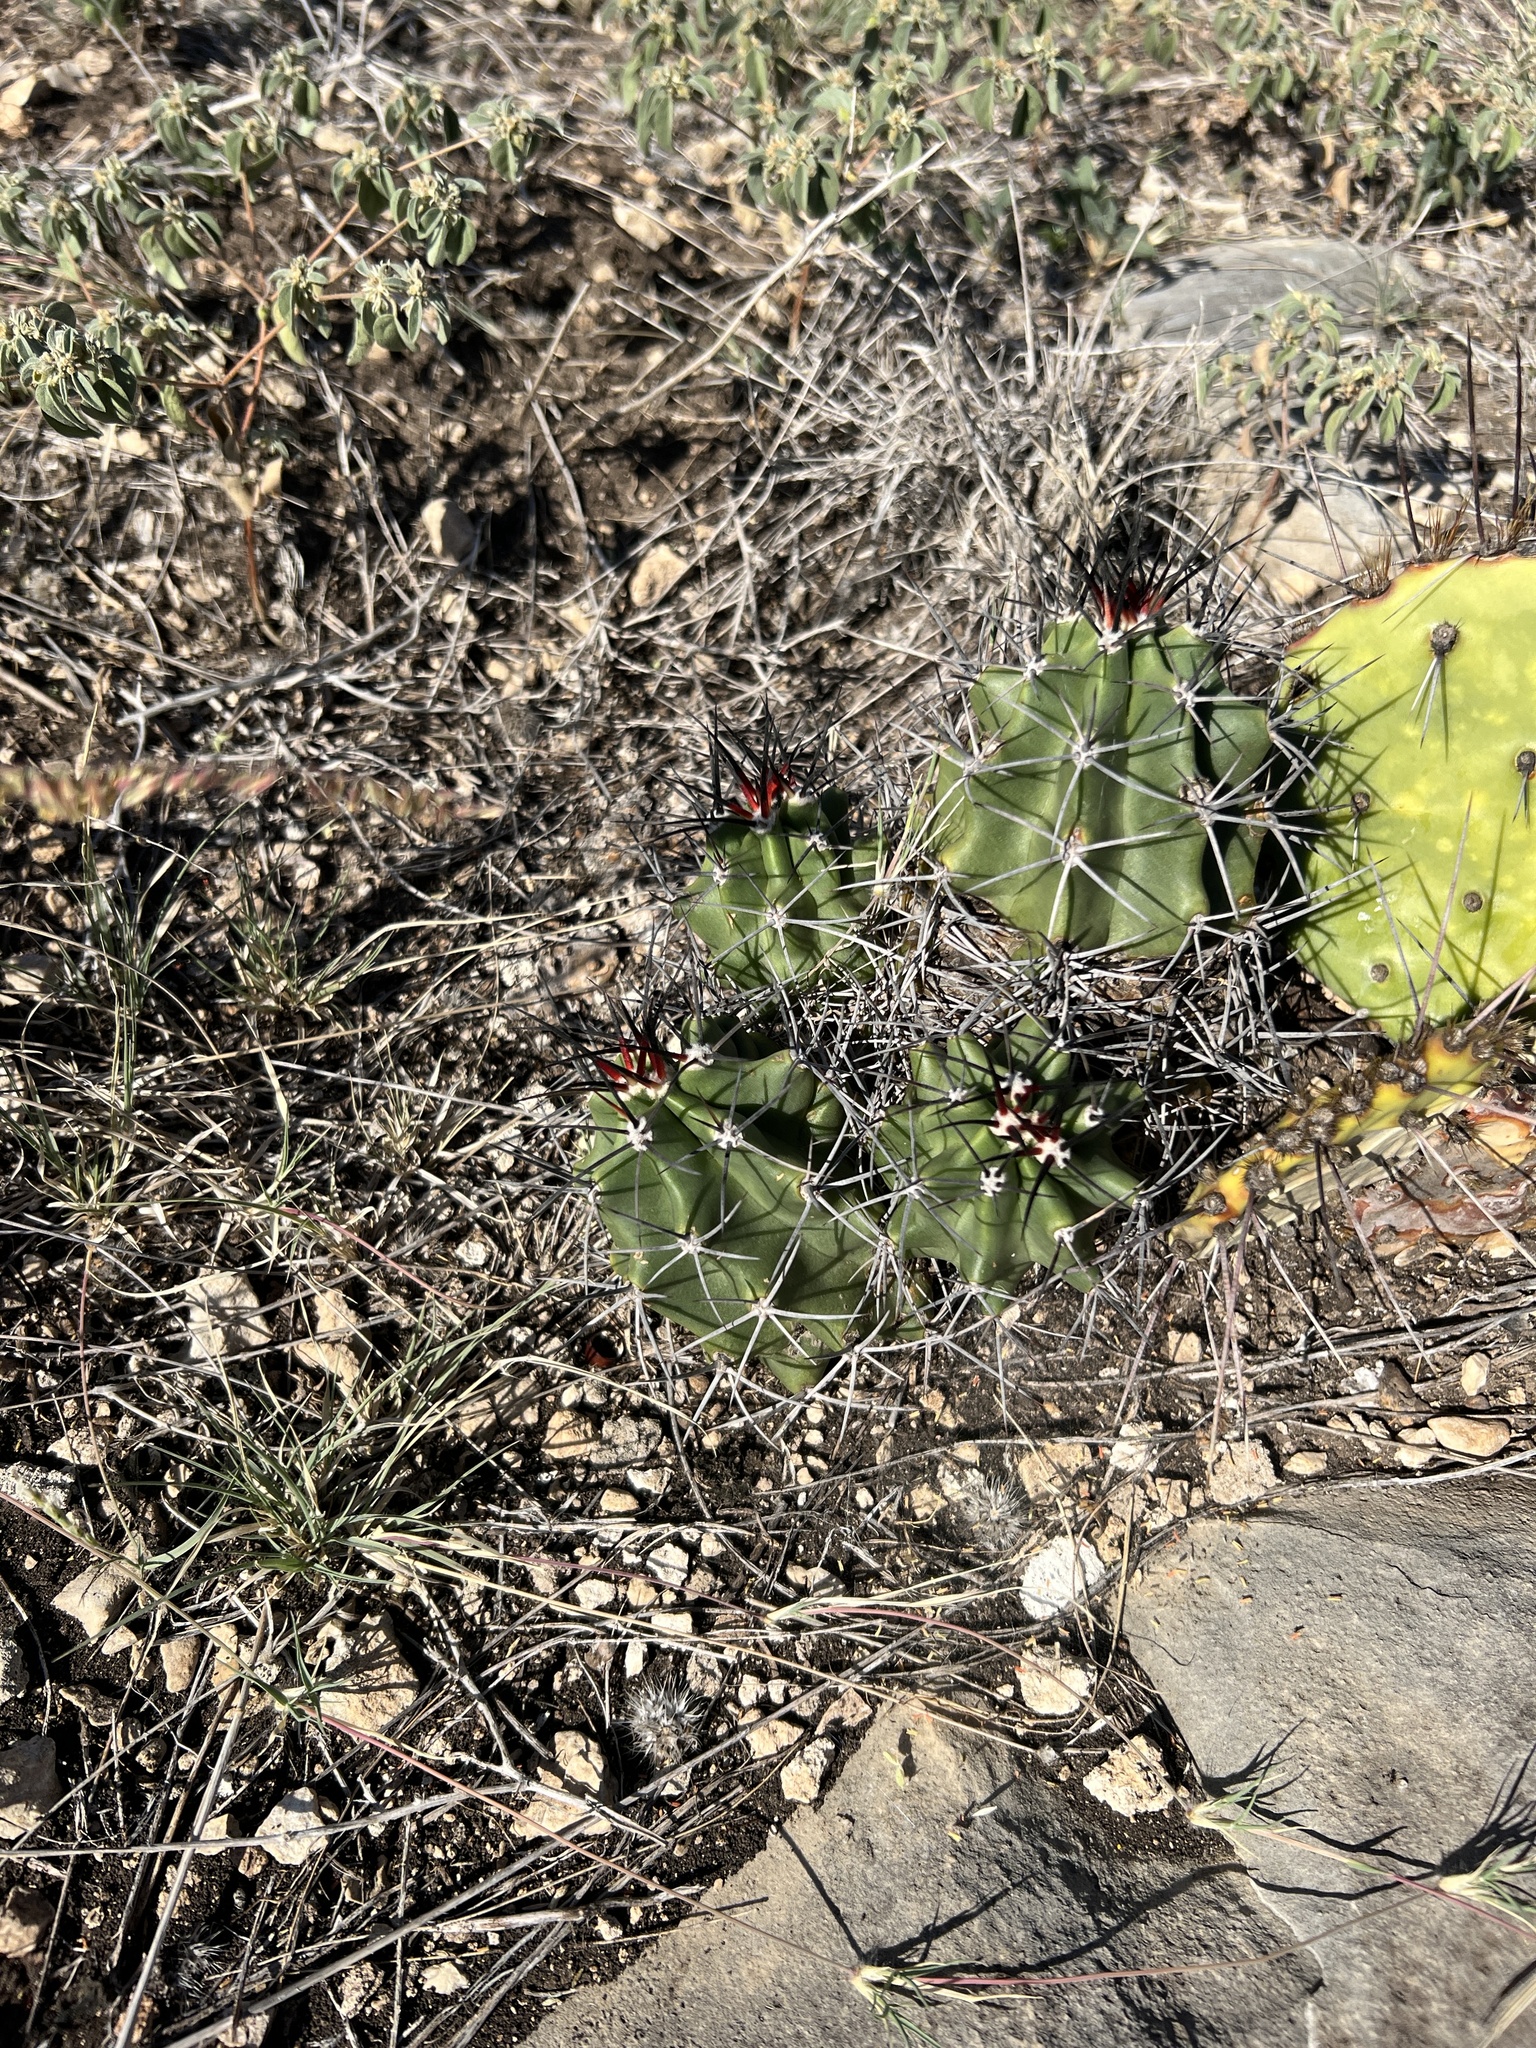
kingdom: Plantae
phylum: Tracheophyta
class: Magnoliopsida
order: Caryophyllales
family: Cactaceae
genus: Echinocereus
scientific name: Echinocereus coccineus
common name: Scarlet hedgehog cactus
